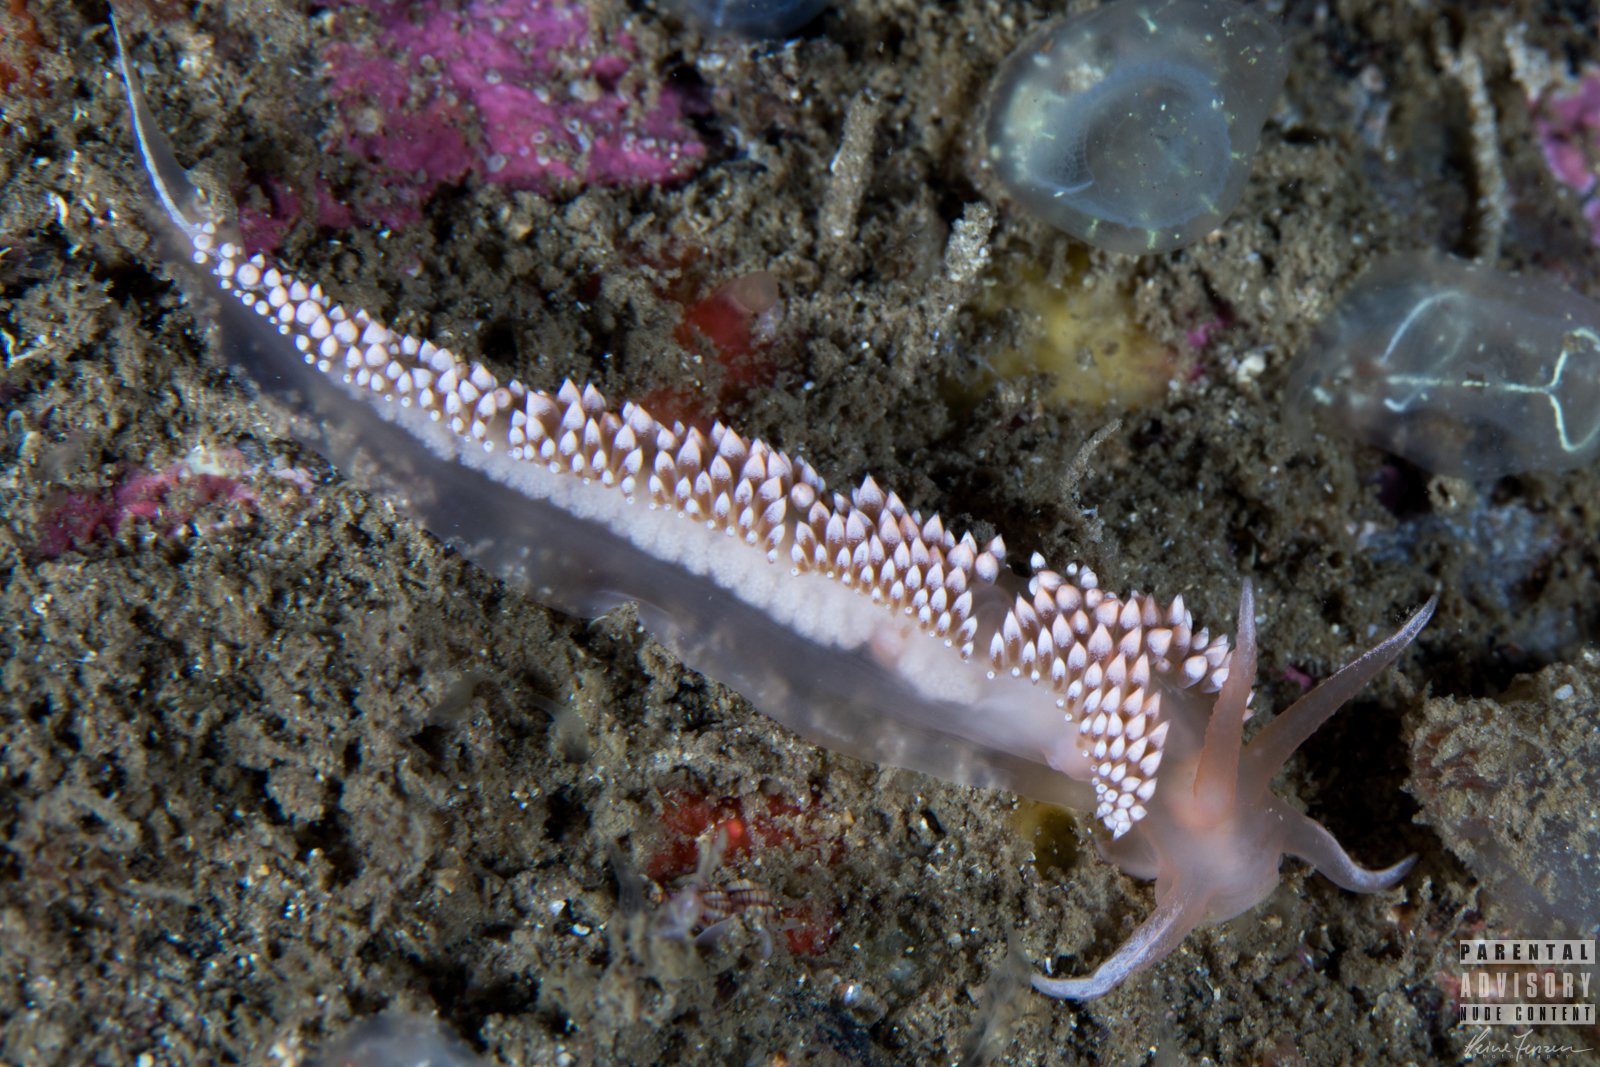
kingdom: Animalia
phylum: Mollusca
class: Gastropoda
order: Nudibranchia
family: Coryphellidae
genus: Coryphella
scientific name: Coryphella verrucosa
